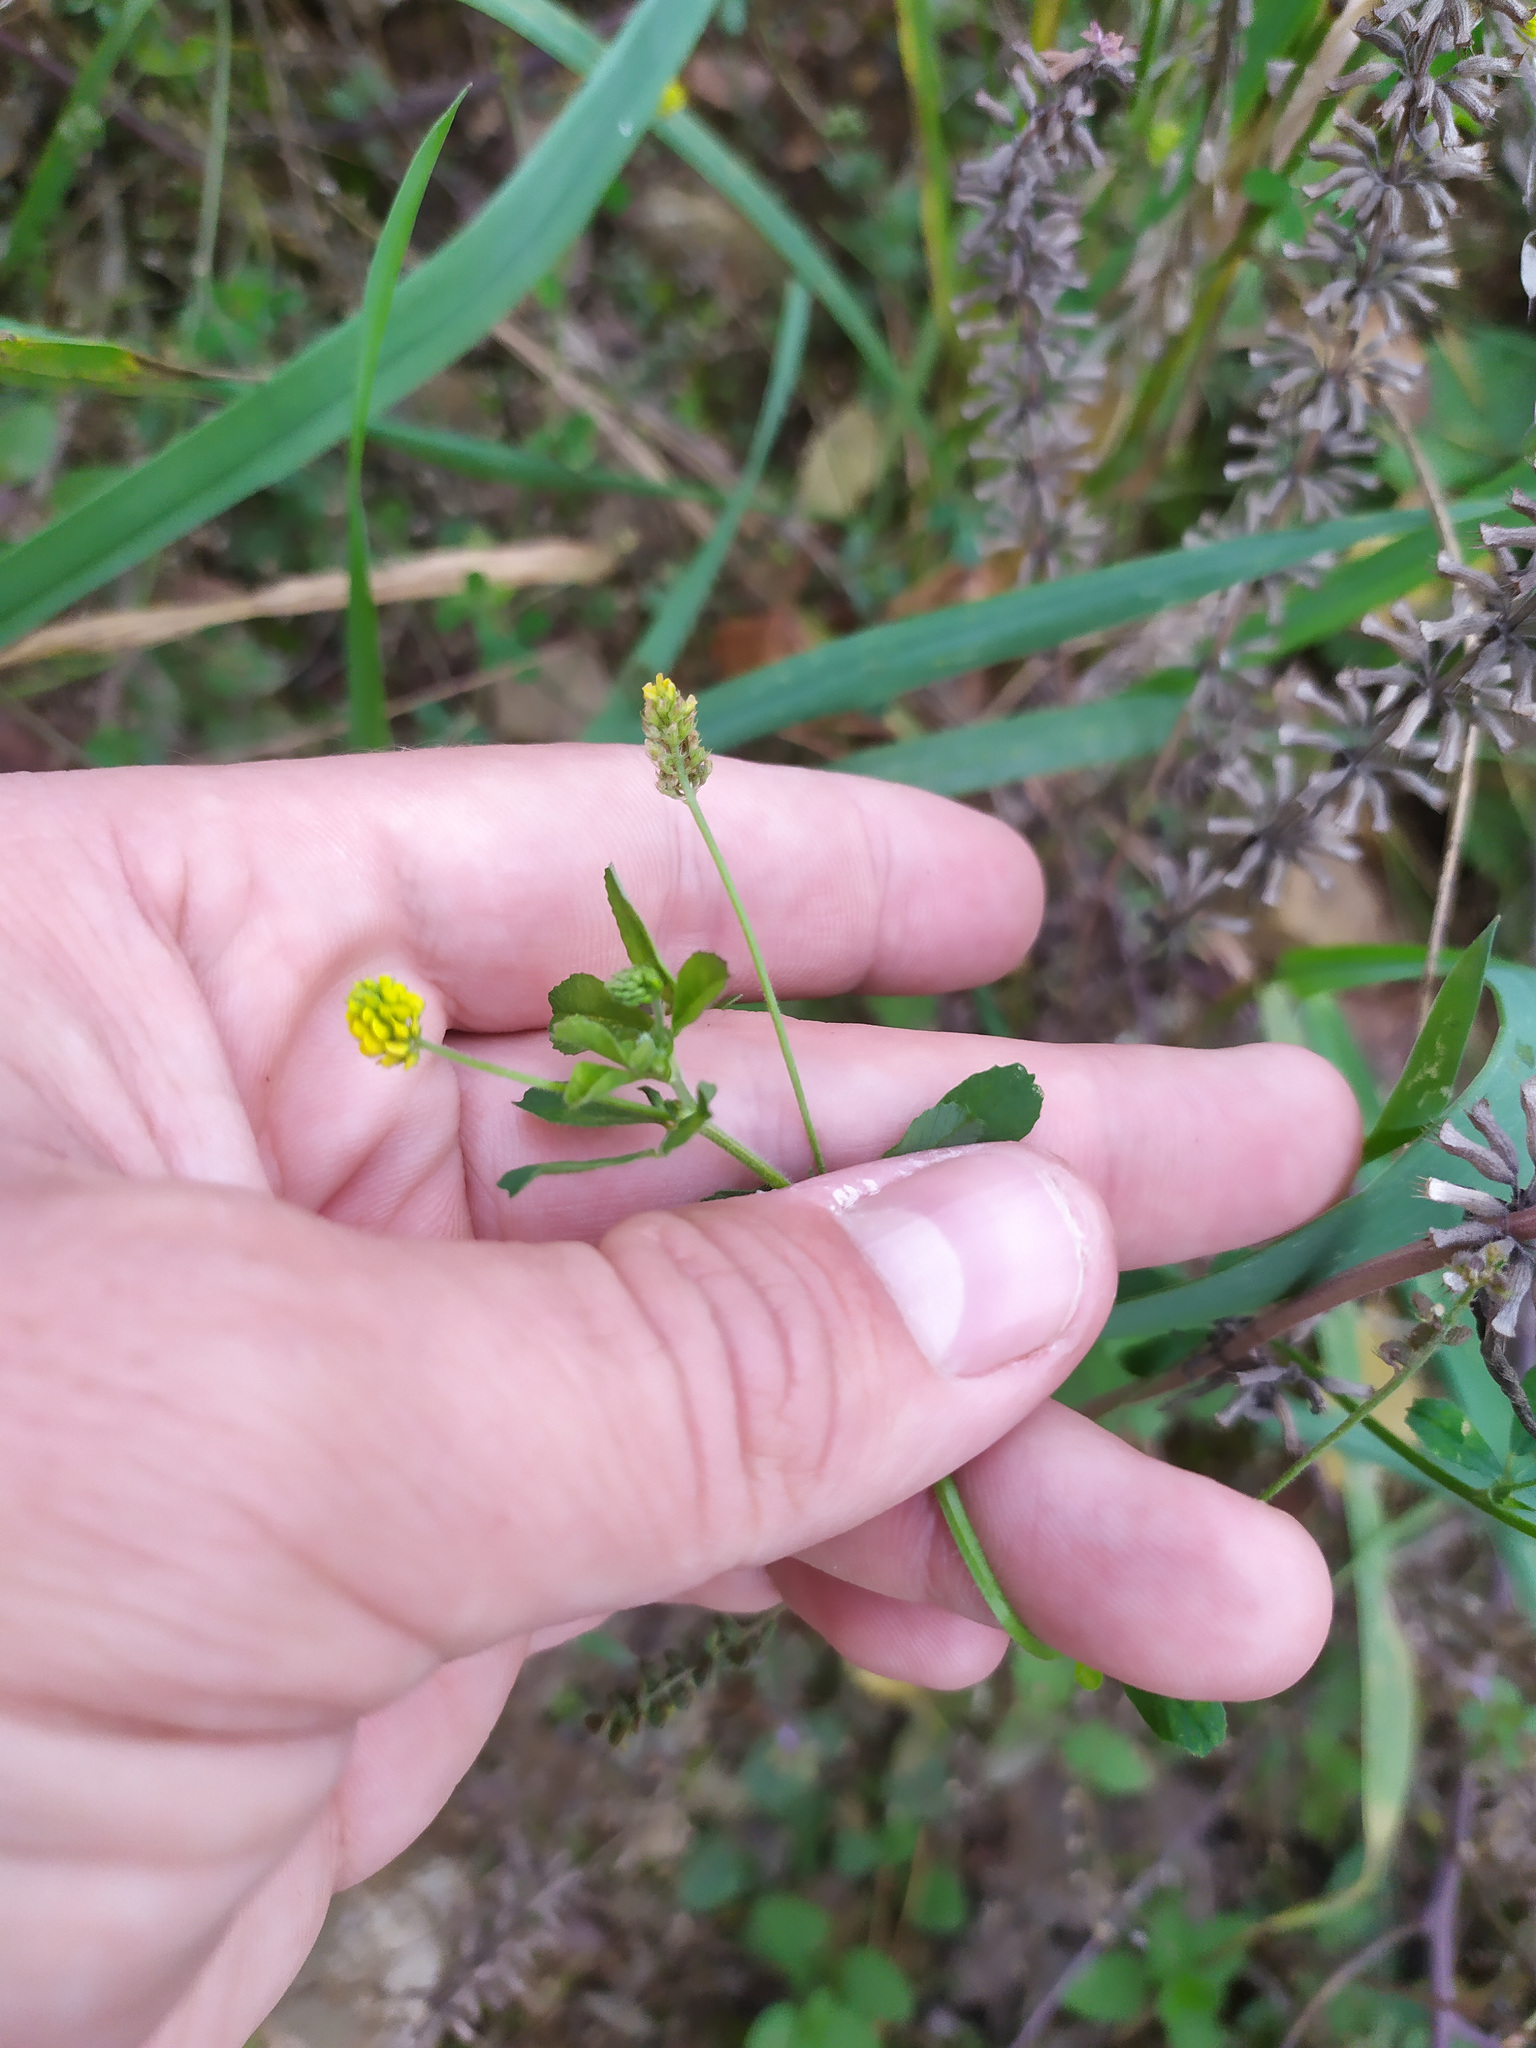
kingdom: Plantae
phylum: Tracheophyta
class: Magnoliopsida
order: Fabales
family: Fabaceae
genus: Medicago
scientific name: Medicago lupulina
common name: Black medick
